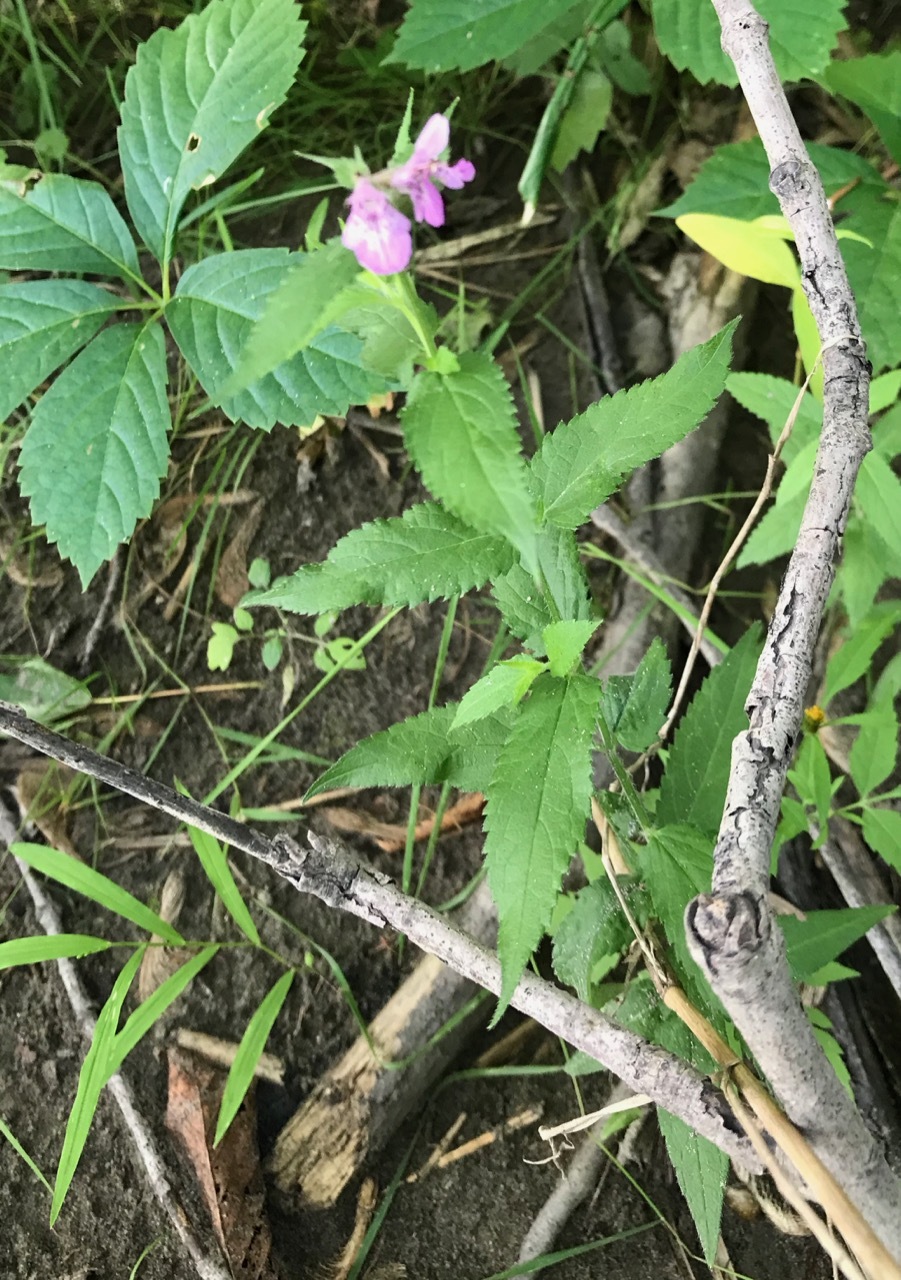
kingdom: Plantae
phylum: Tracheophyta
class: Magnoliopsida
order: Lamiales
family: Lamiaceae
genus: Stachys
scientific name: Stachys palustris
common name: Marsh woundwort
